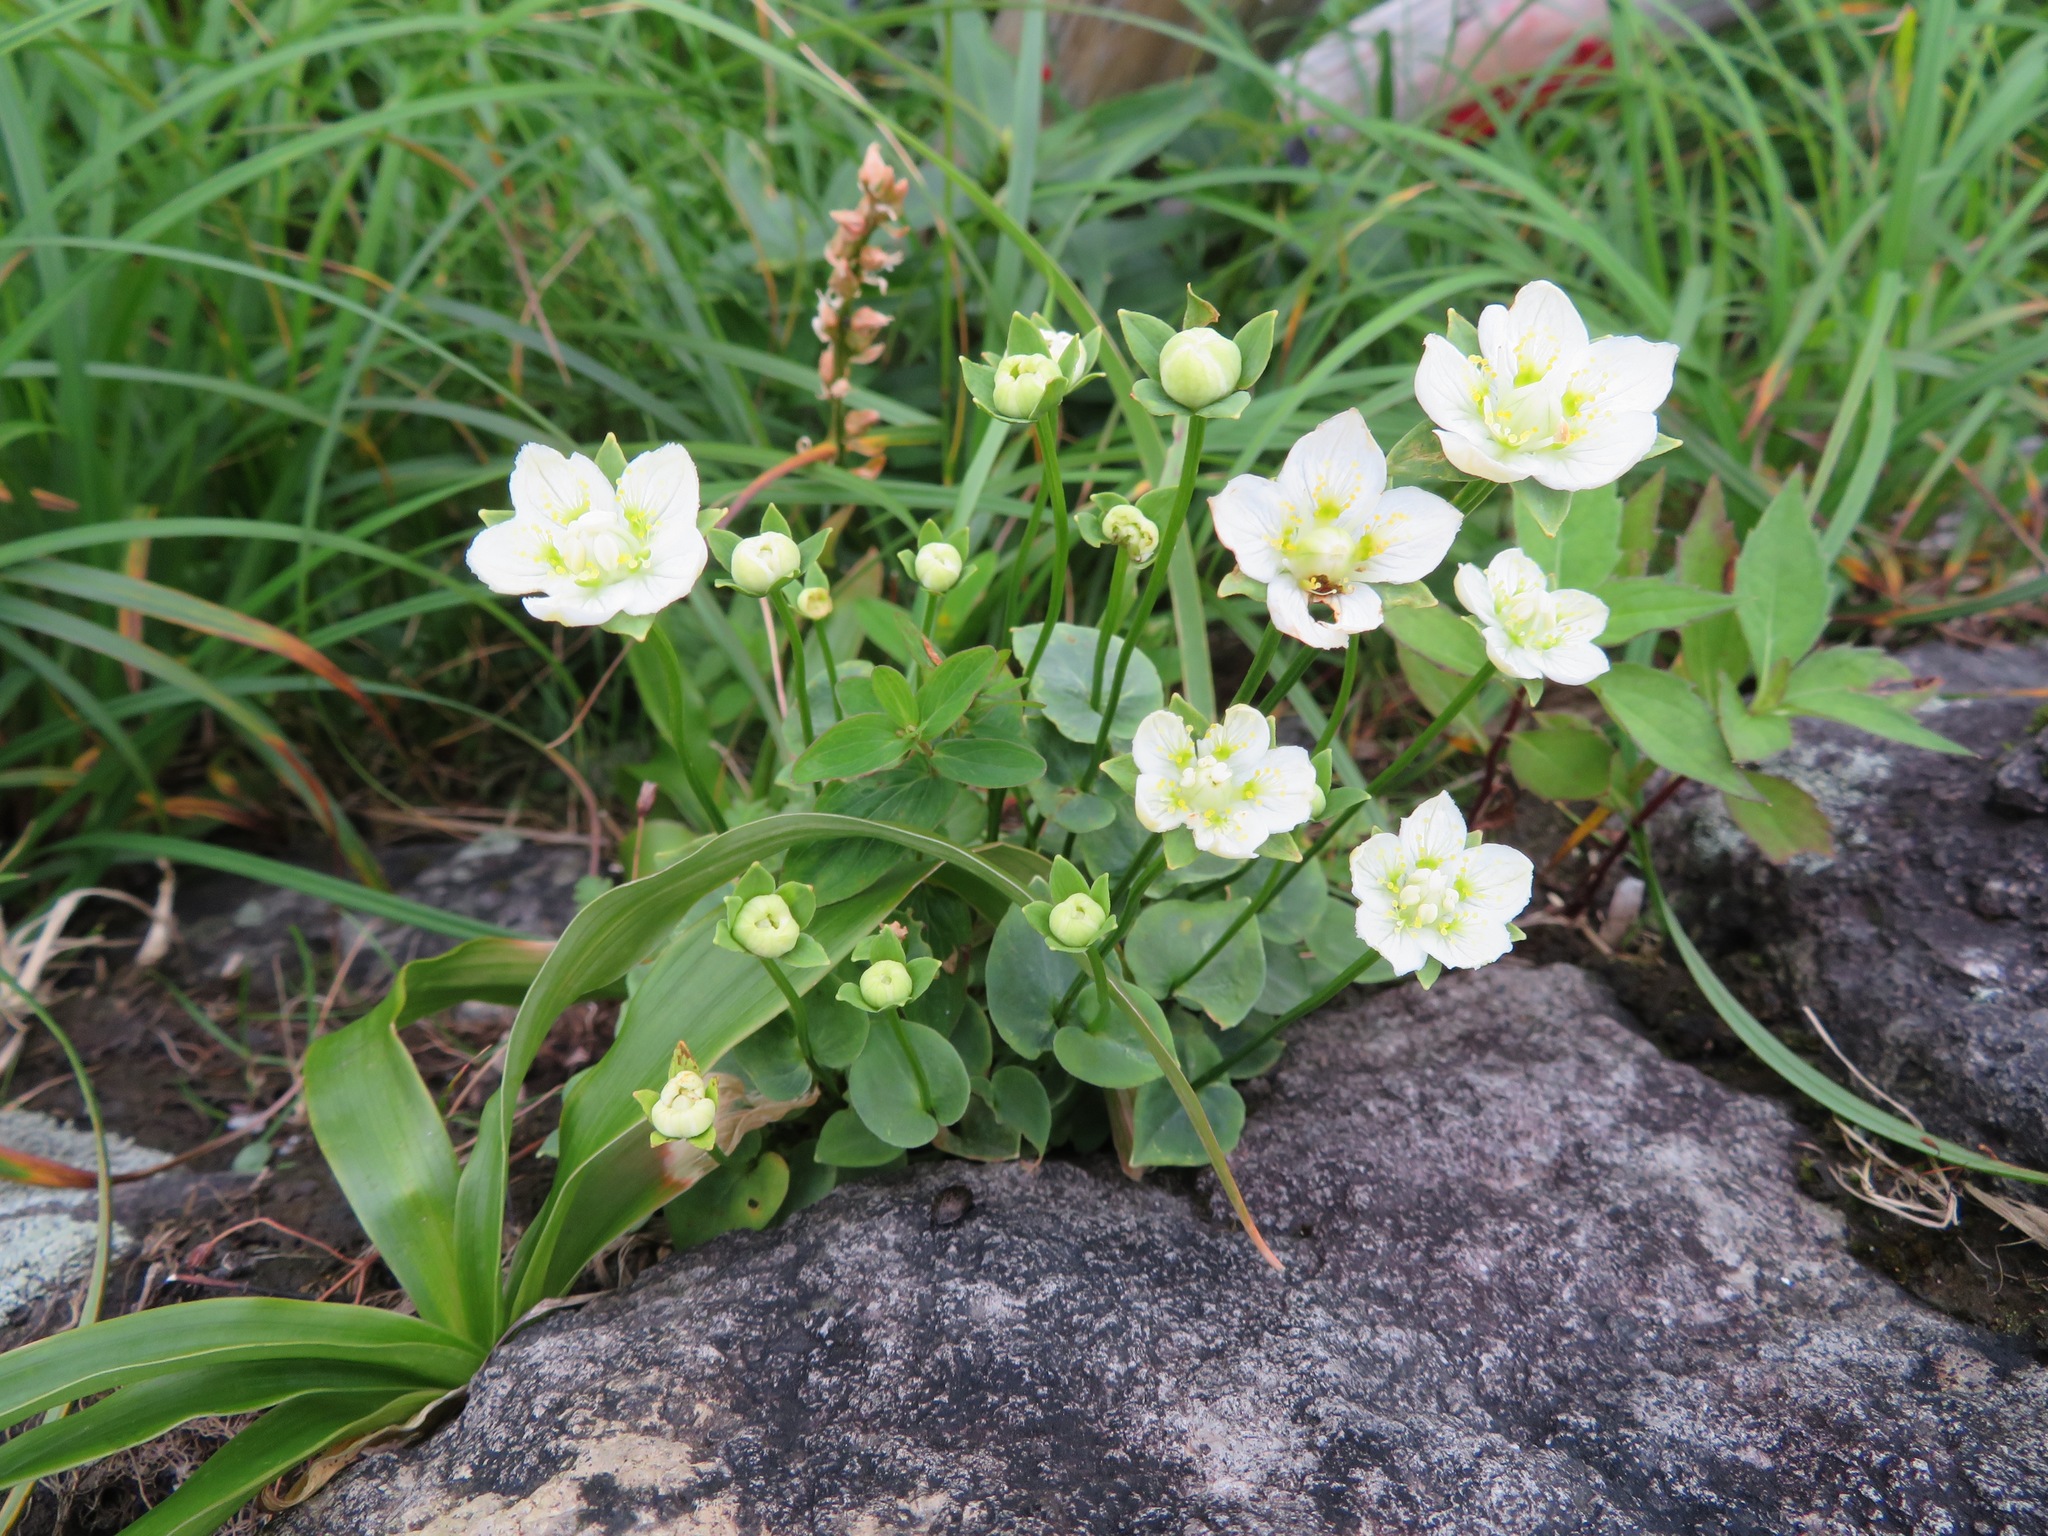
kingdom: Plantae
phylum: Tracheophyta
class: Magnoliopsida
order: Celastrales
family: Parnassiaceae
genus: Parnassia
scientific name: Parnassia palustris
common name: Grass-of-parnassus
